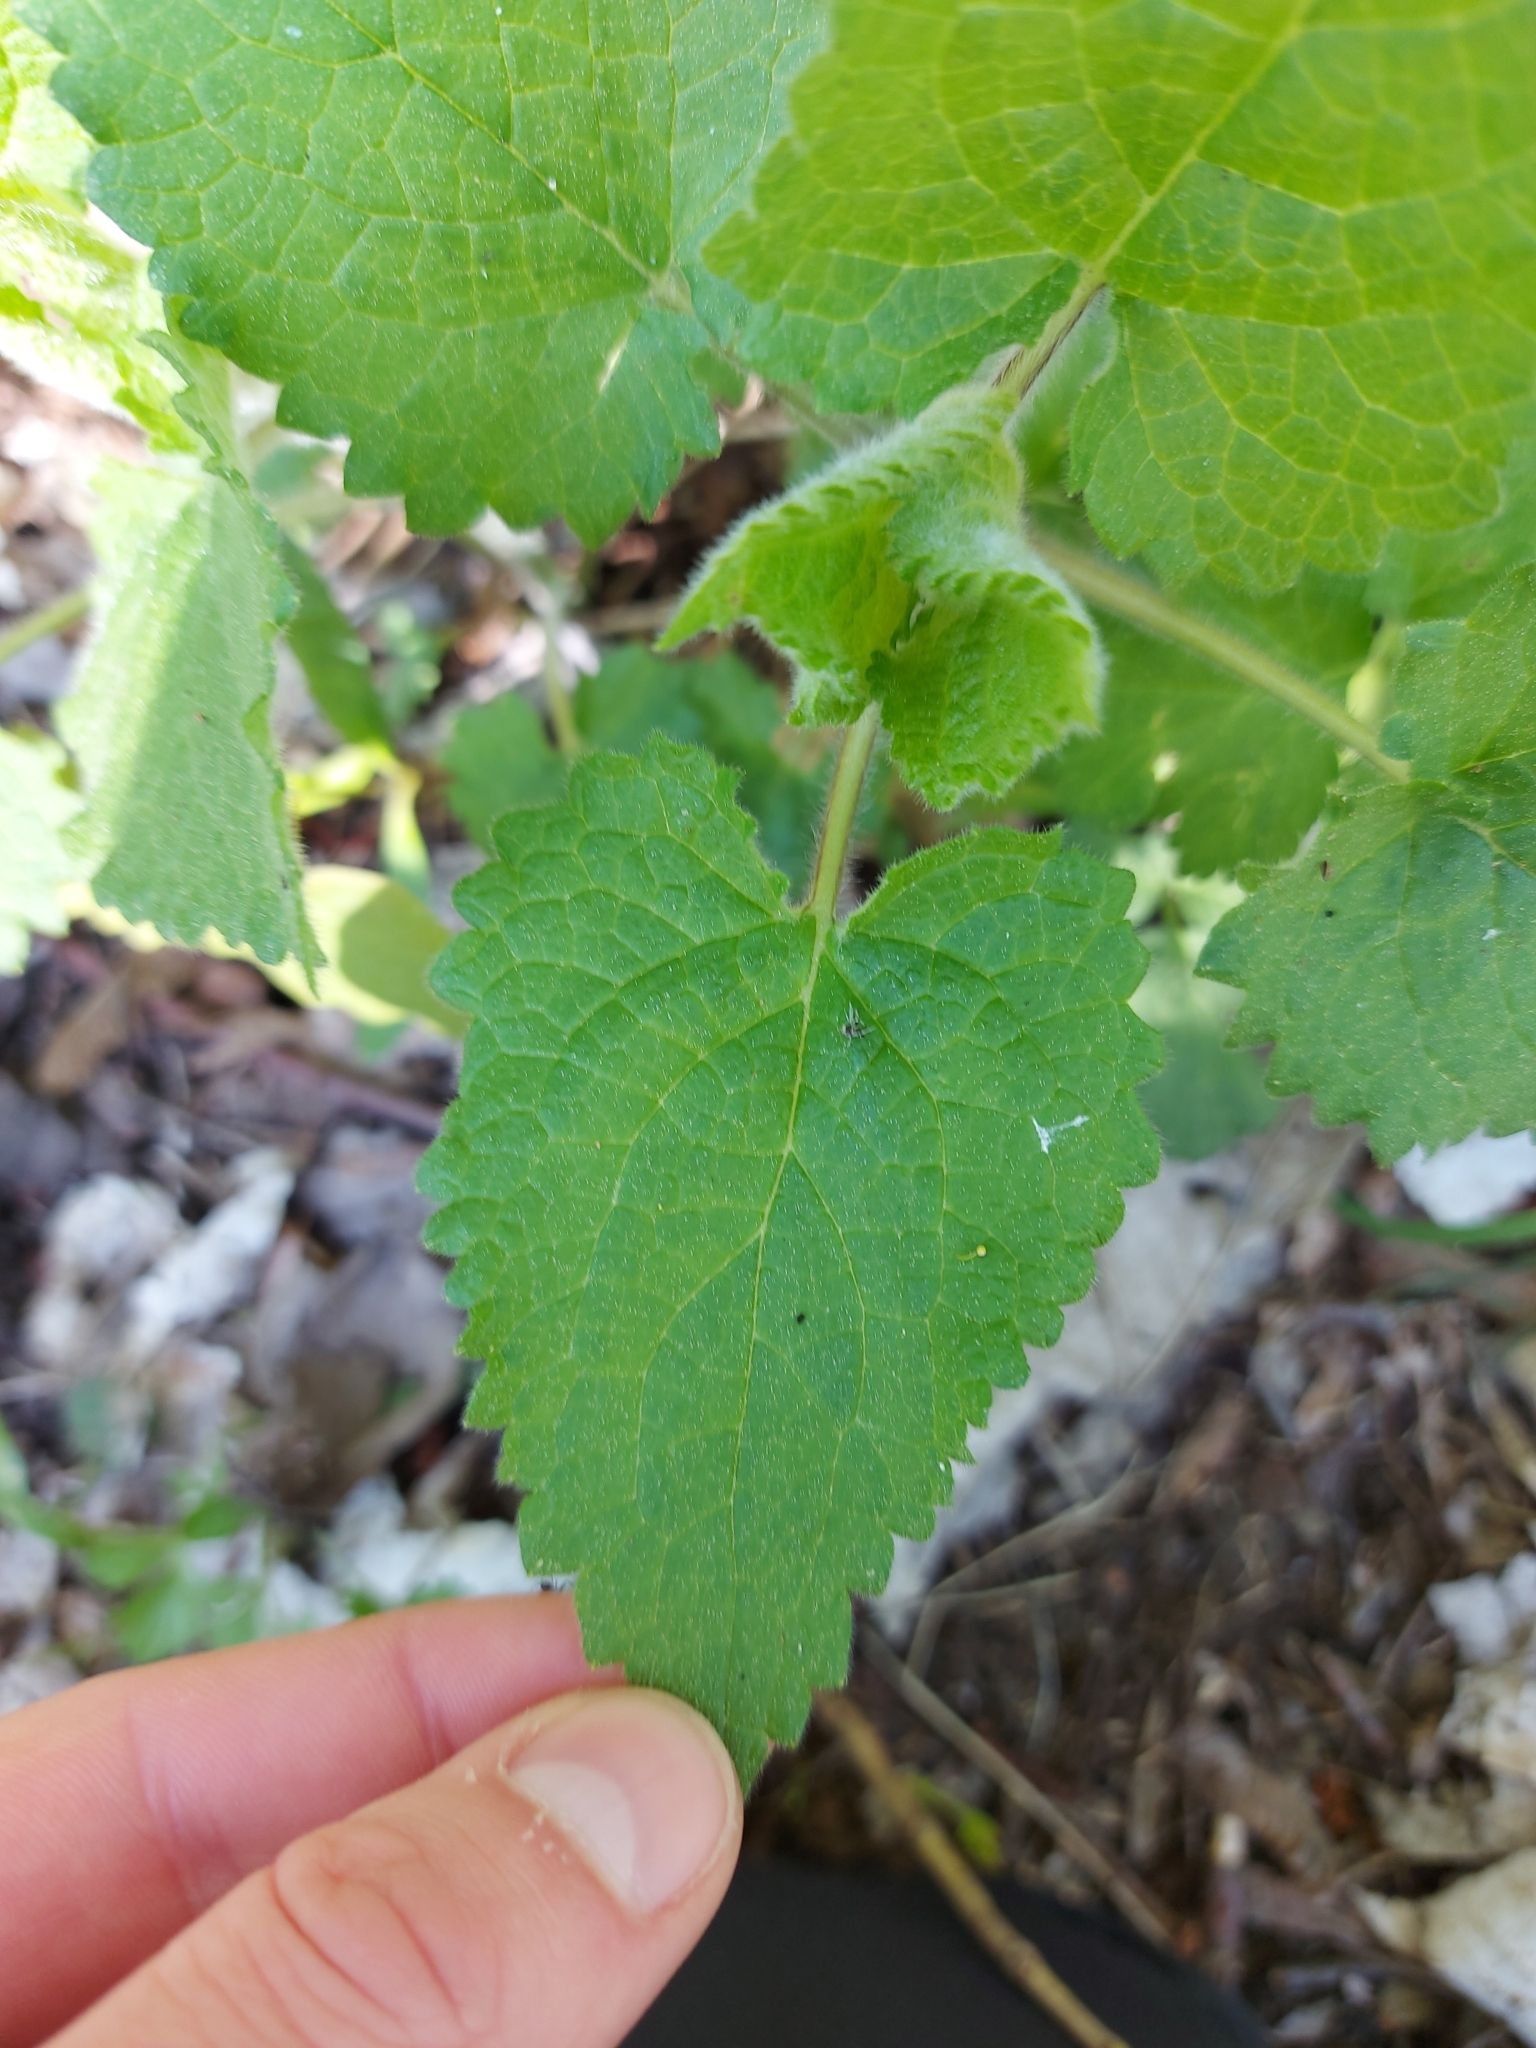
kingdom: Plantae
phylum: Tracheophyta
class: Magnoliopsida
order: Lamiales
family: Lamiaceae
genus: Stachys
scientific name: Stachys sylvatica
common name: Hedge woundwort
